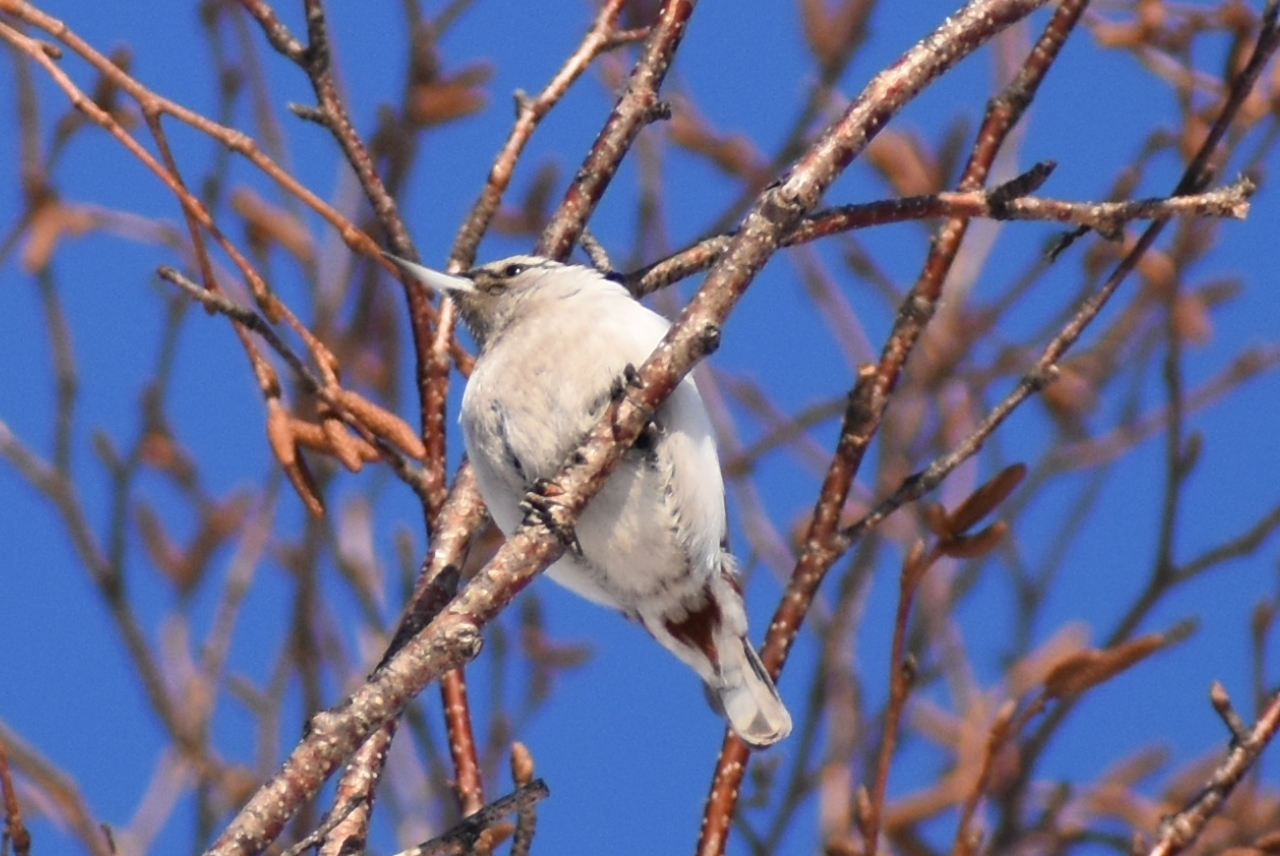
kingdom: Animalia
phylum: Chordata
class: Aves
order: Passeriformes
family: Sittidae
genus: Sitta
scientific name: Sitta europaea
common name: Eurasian nuthatch
